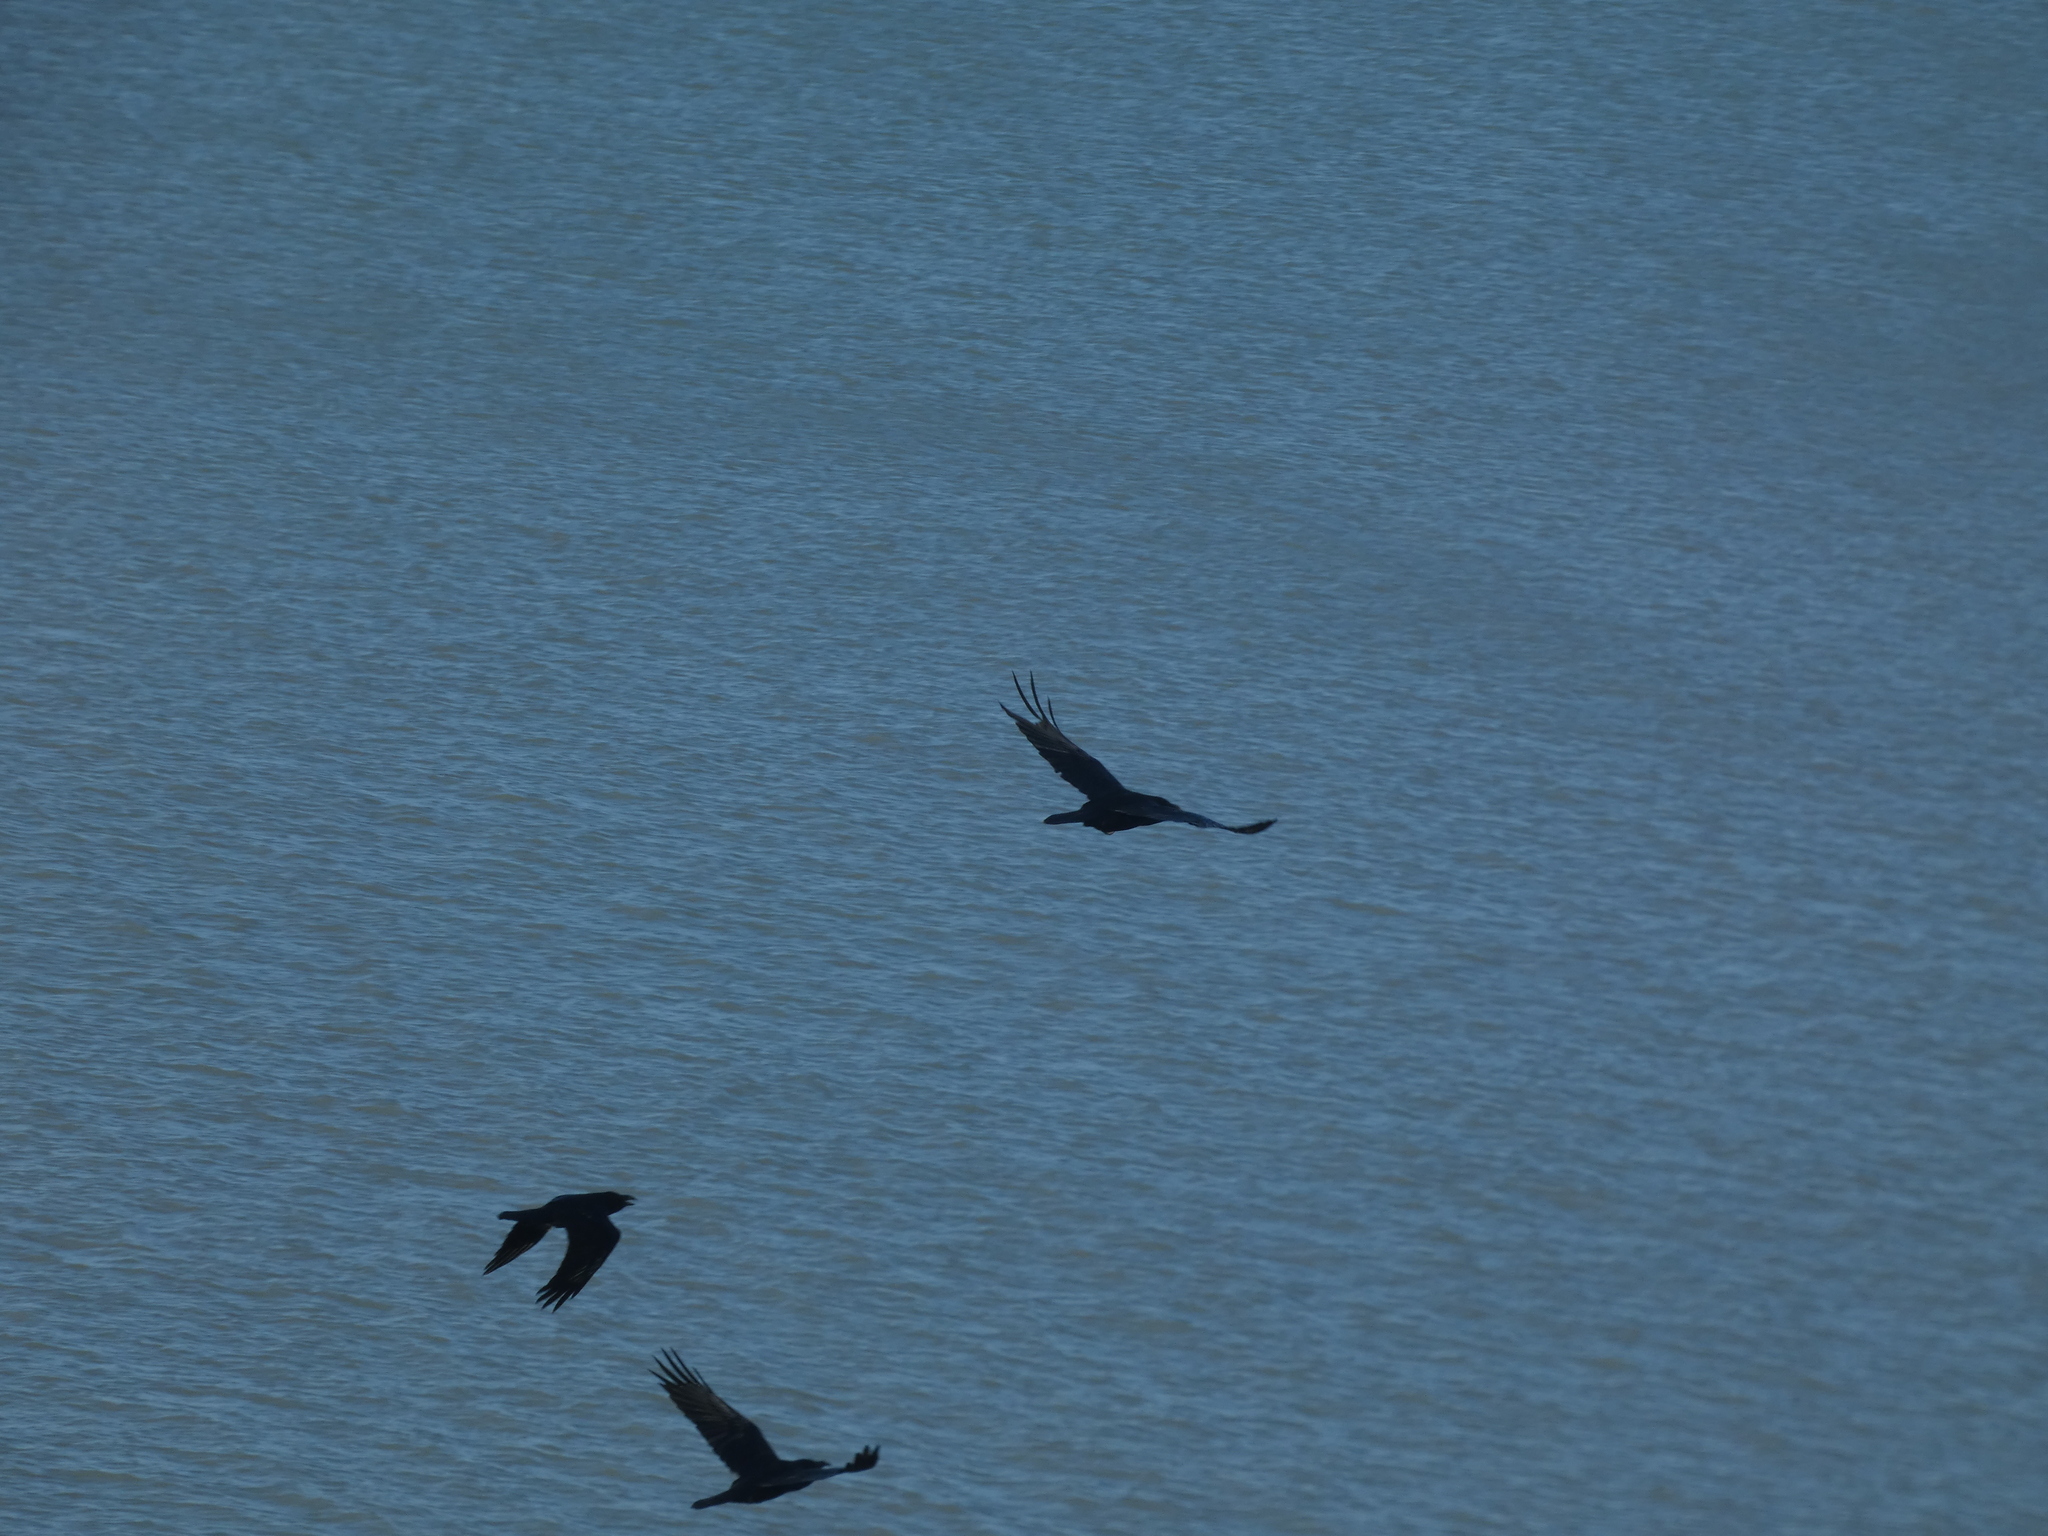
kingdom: Animalia
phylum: Chordata
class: Aves
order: Passeriformes
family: Corvidae
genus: Corvus
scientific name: Corvus corax
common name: Common raven
